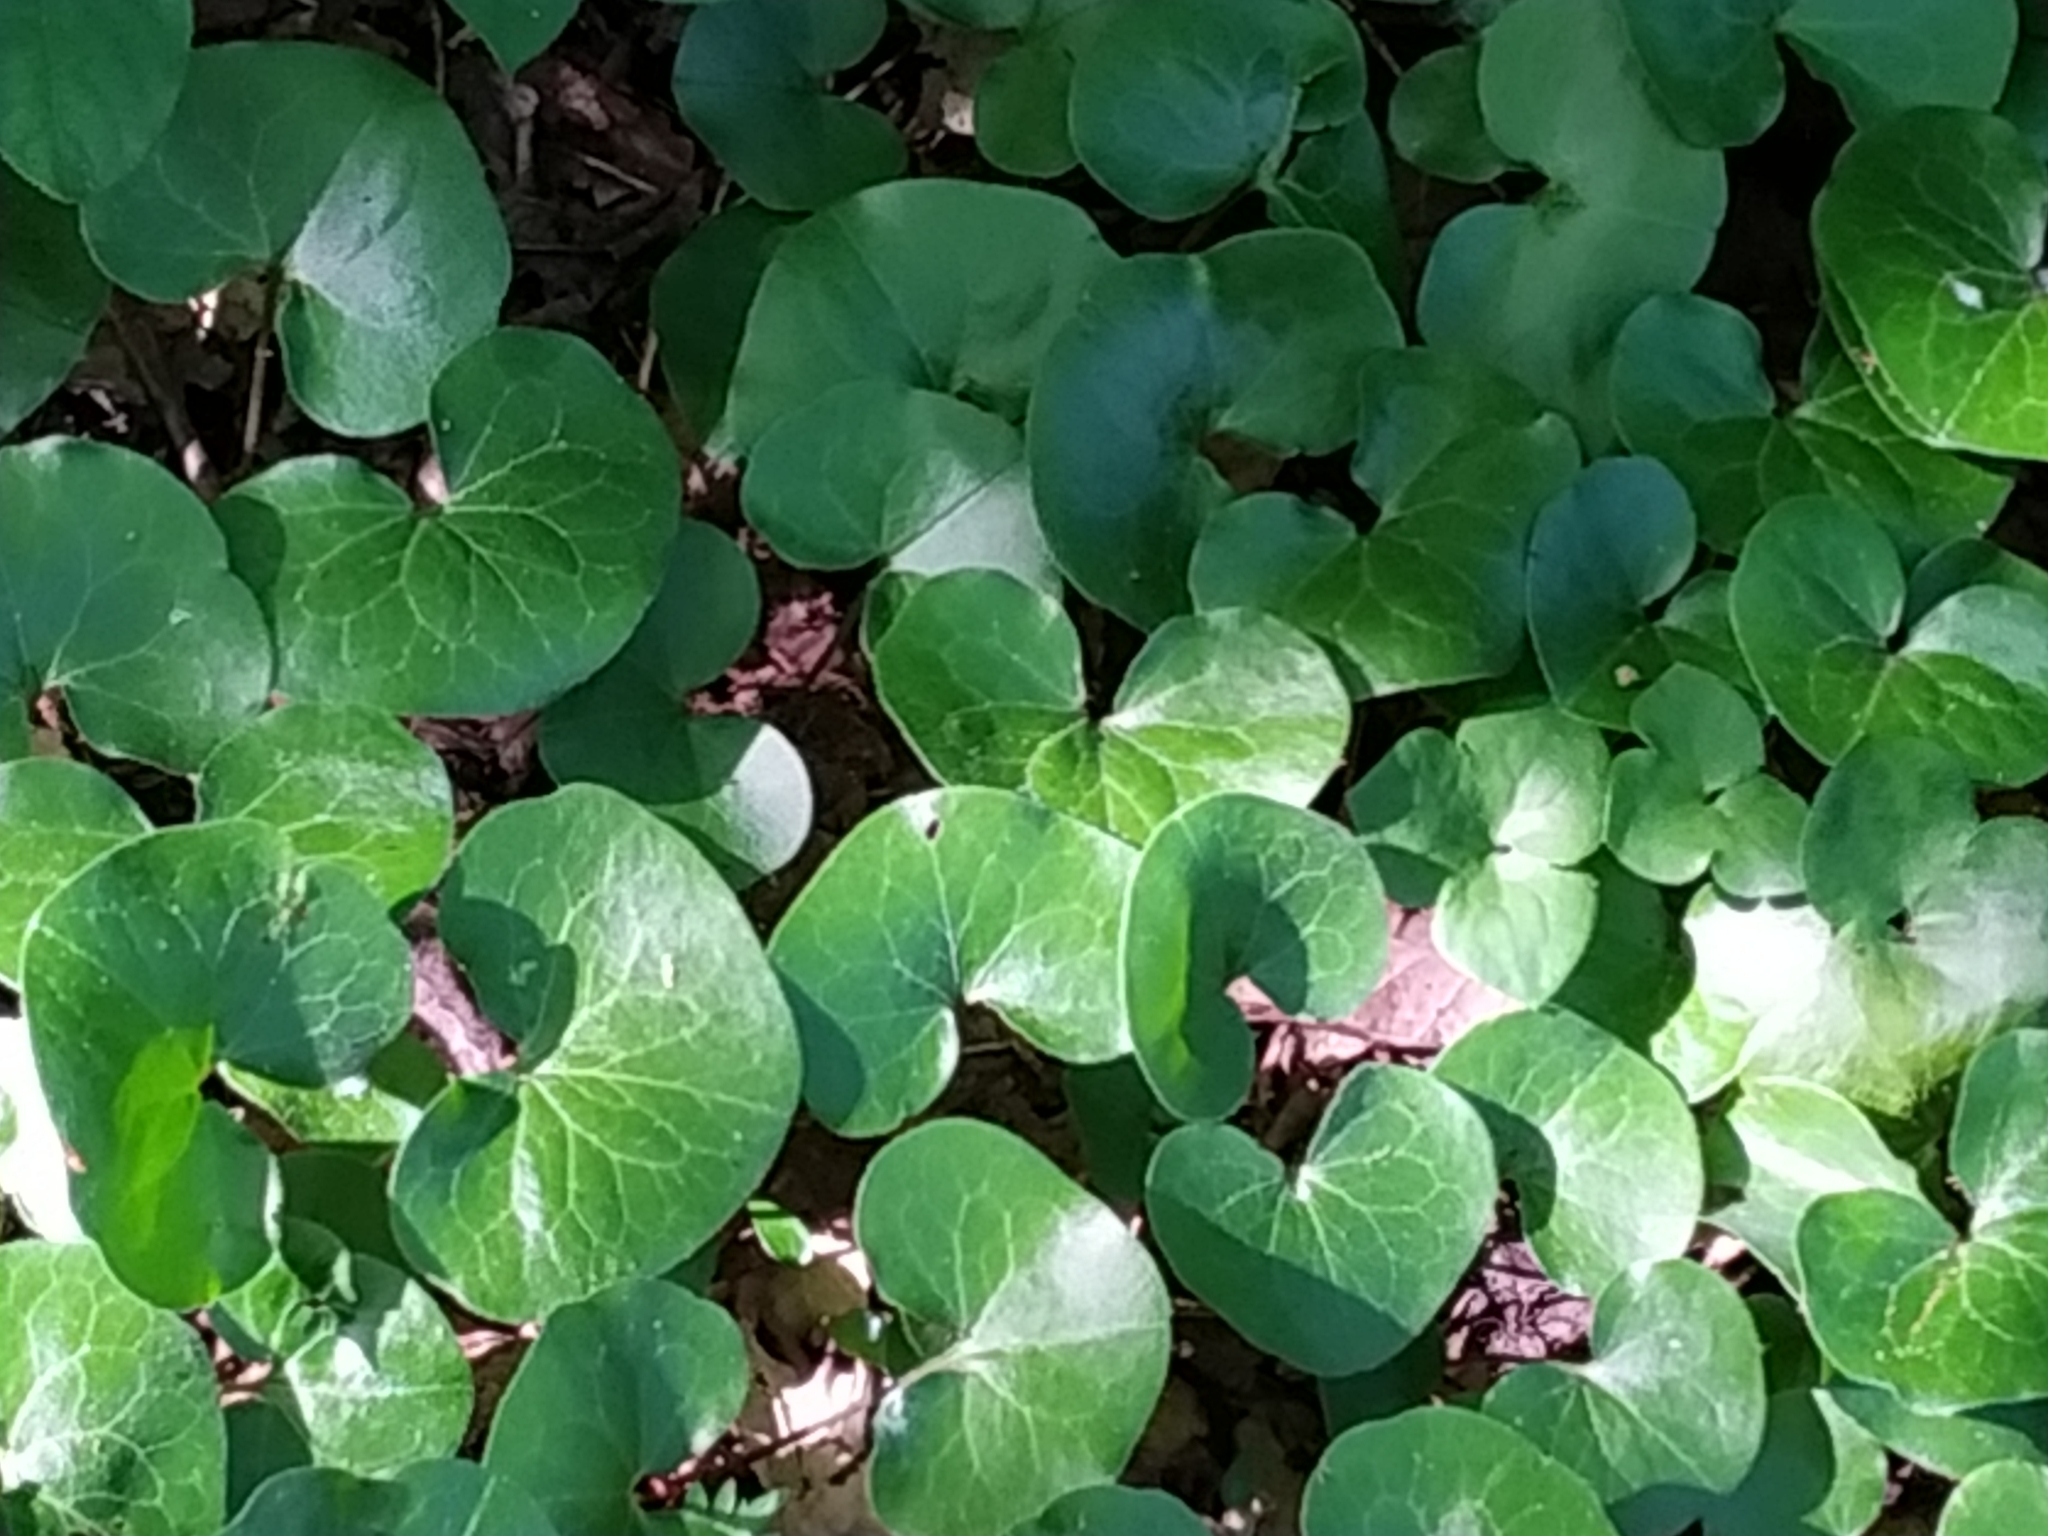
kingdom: Plantae
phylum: Tracheophyta
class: Magnoliopsida
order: Piperales
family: Aristolochiaceae
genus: Asarum
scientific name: Asarum europaeum
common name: Asarabacca
